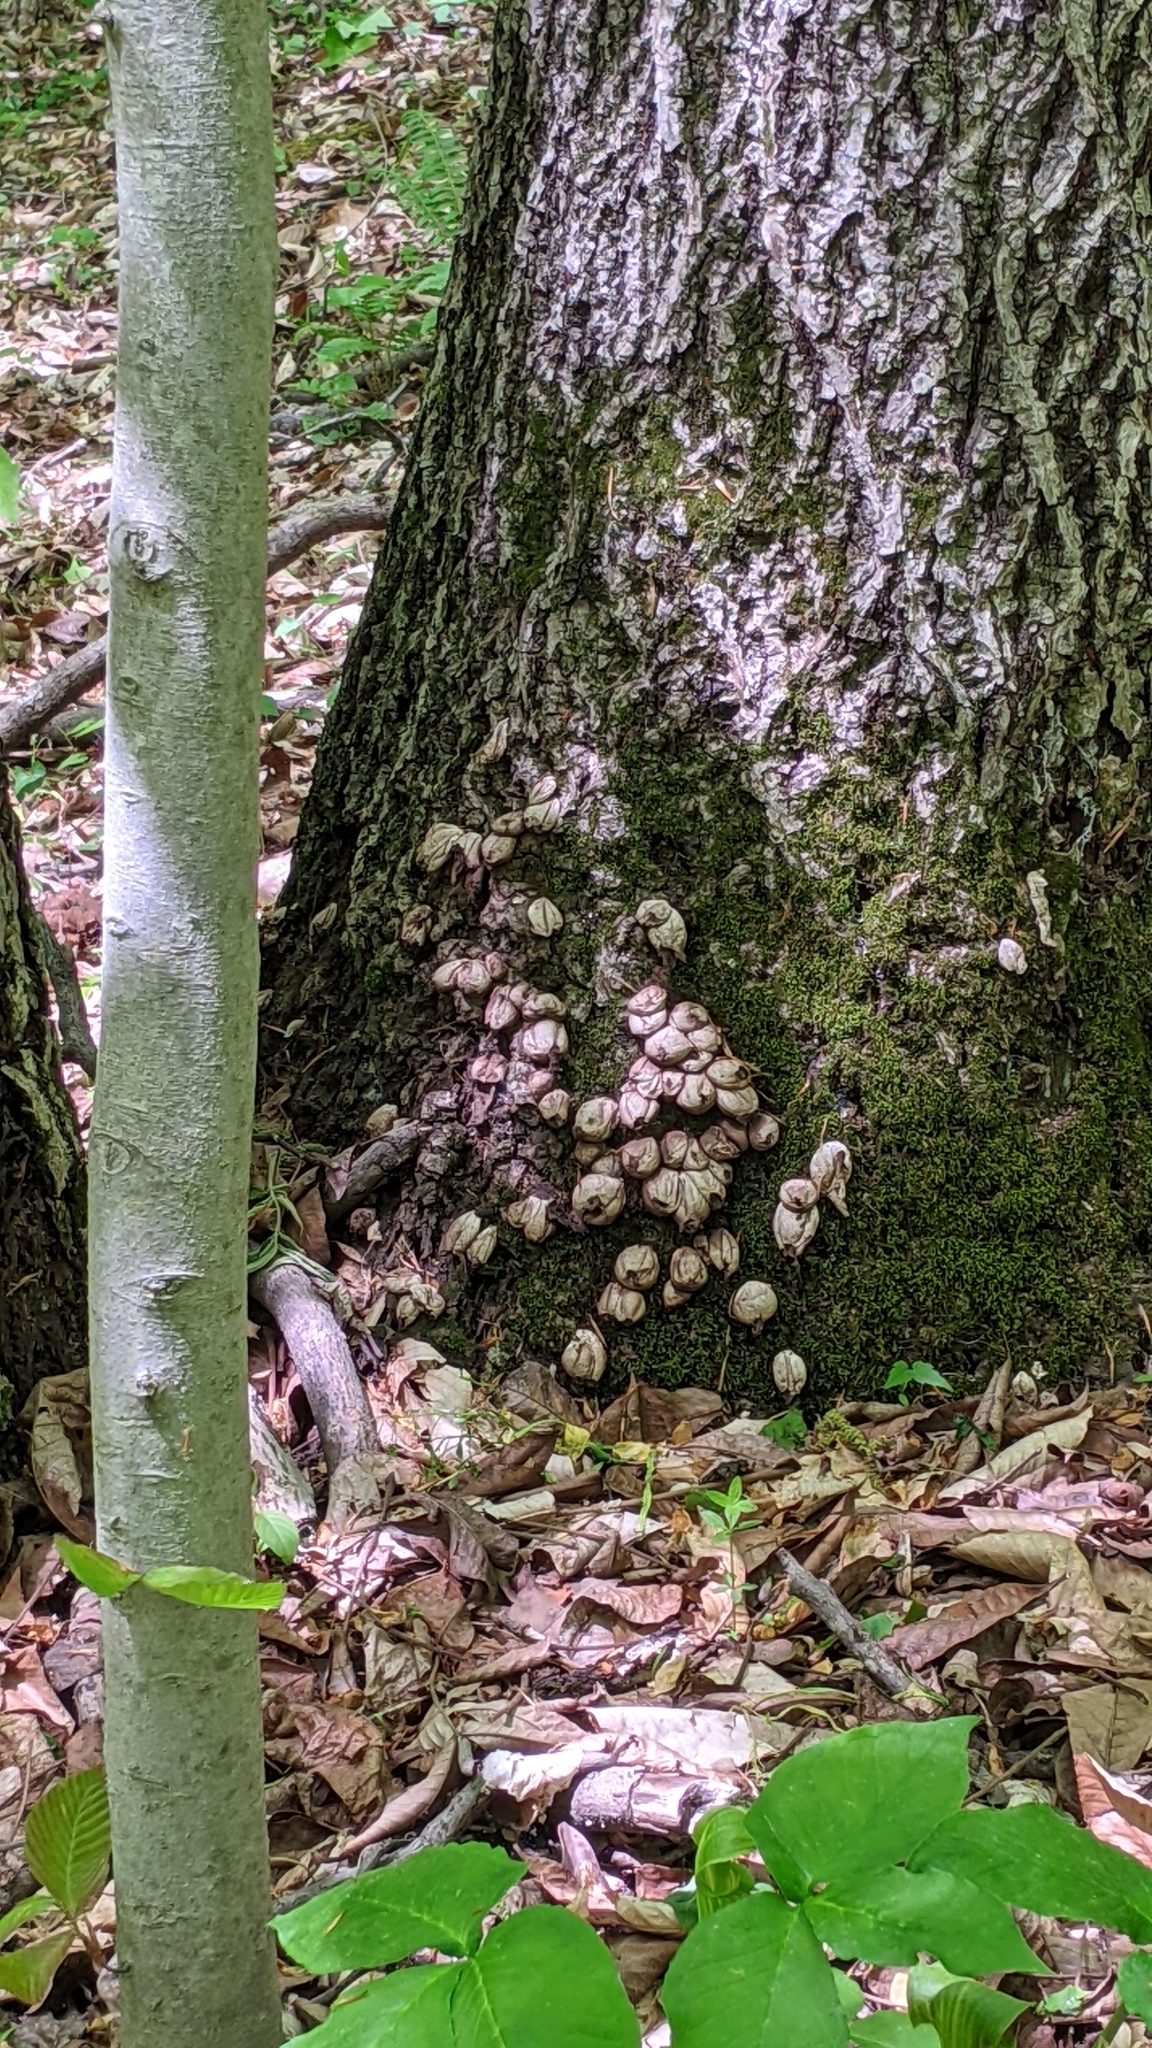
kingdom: Fungi
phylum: Basidiomycota
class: Agaricomycetes
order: Agaricales
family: Lycoperdaceae
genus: Apioperdon
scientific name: Apioperdon pyriforme
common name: Pear-shaped puffball
